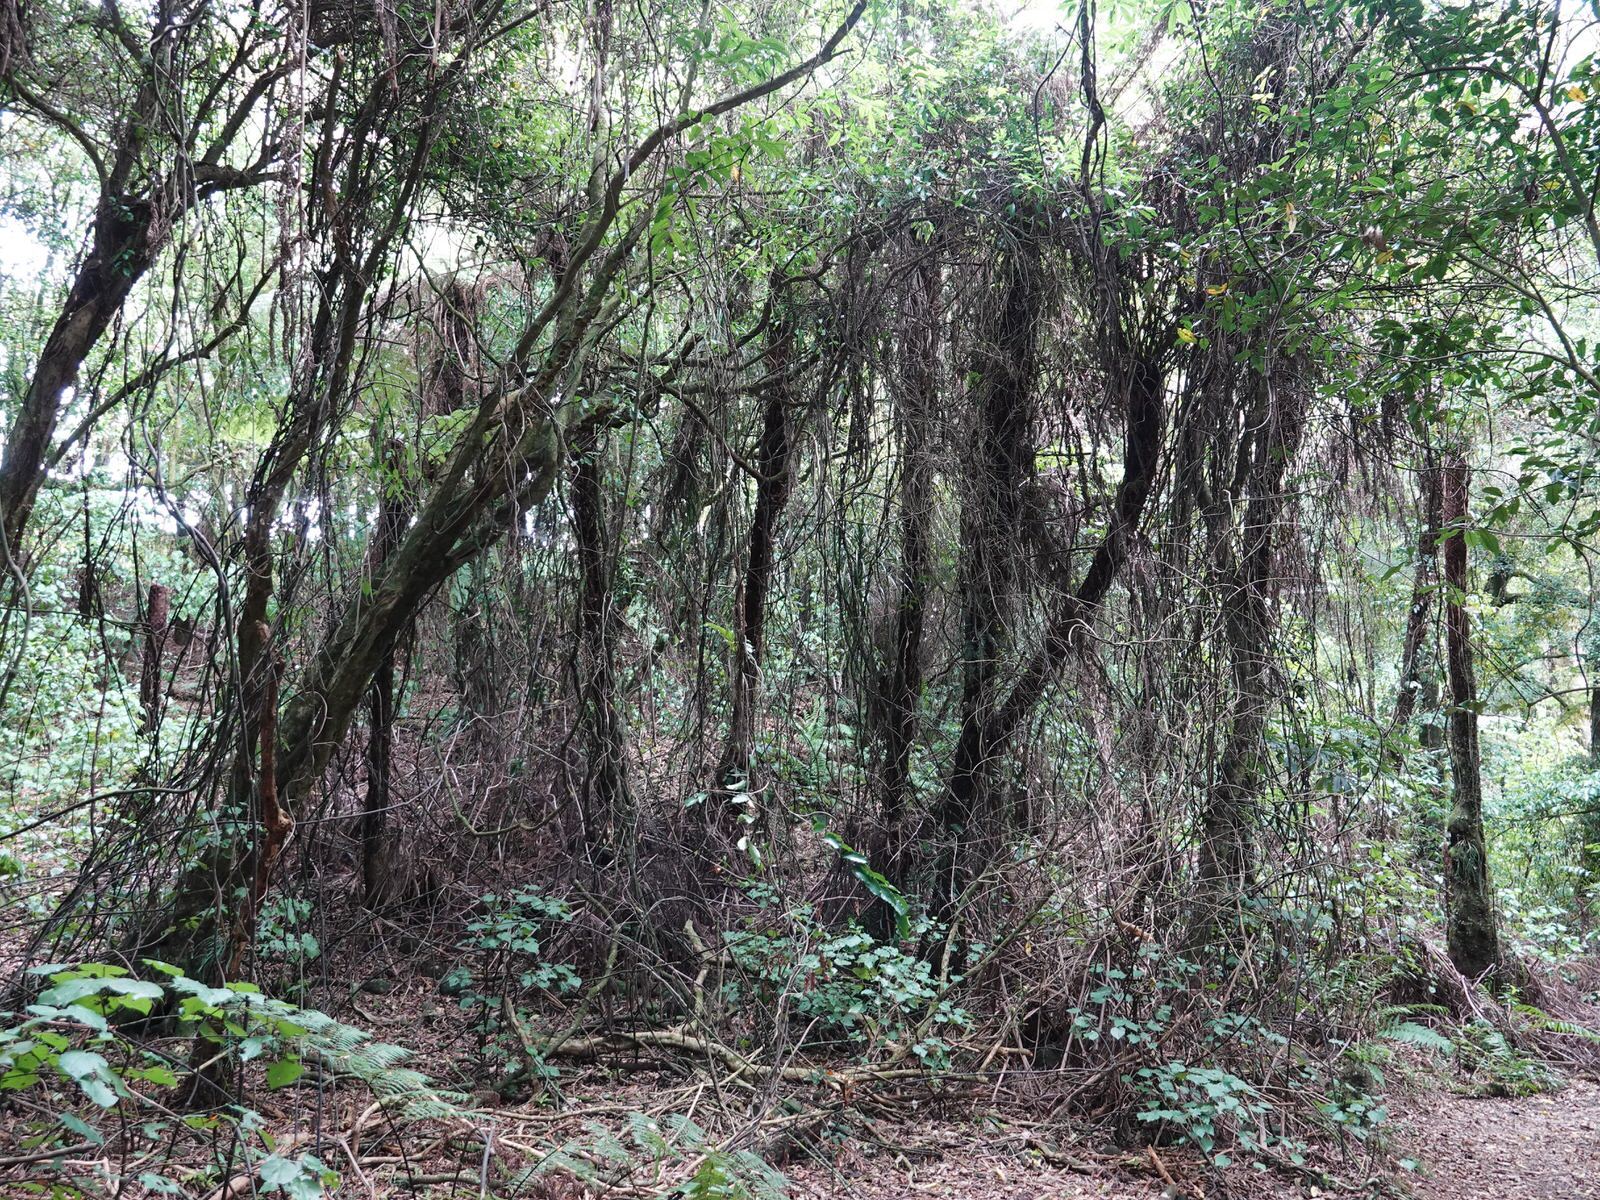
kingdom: Plantae
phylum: Tracheophyta
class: Liliopsida
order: Liliales
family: Ripogonaceae
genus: Ripogonum
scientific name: Ripogonum scandens
